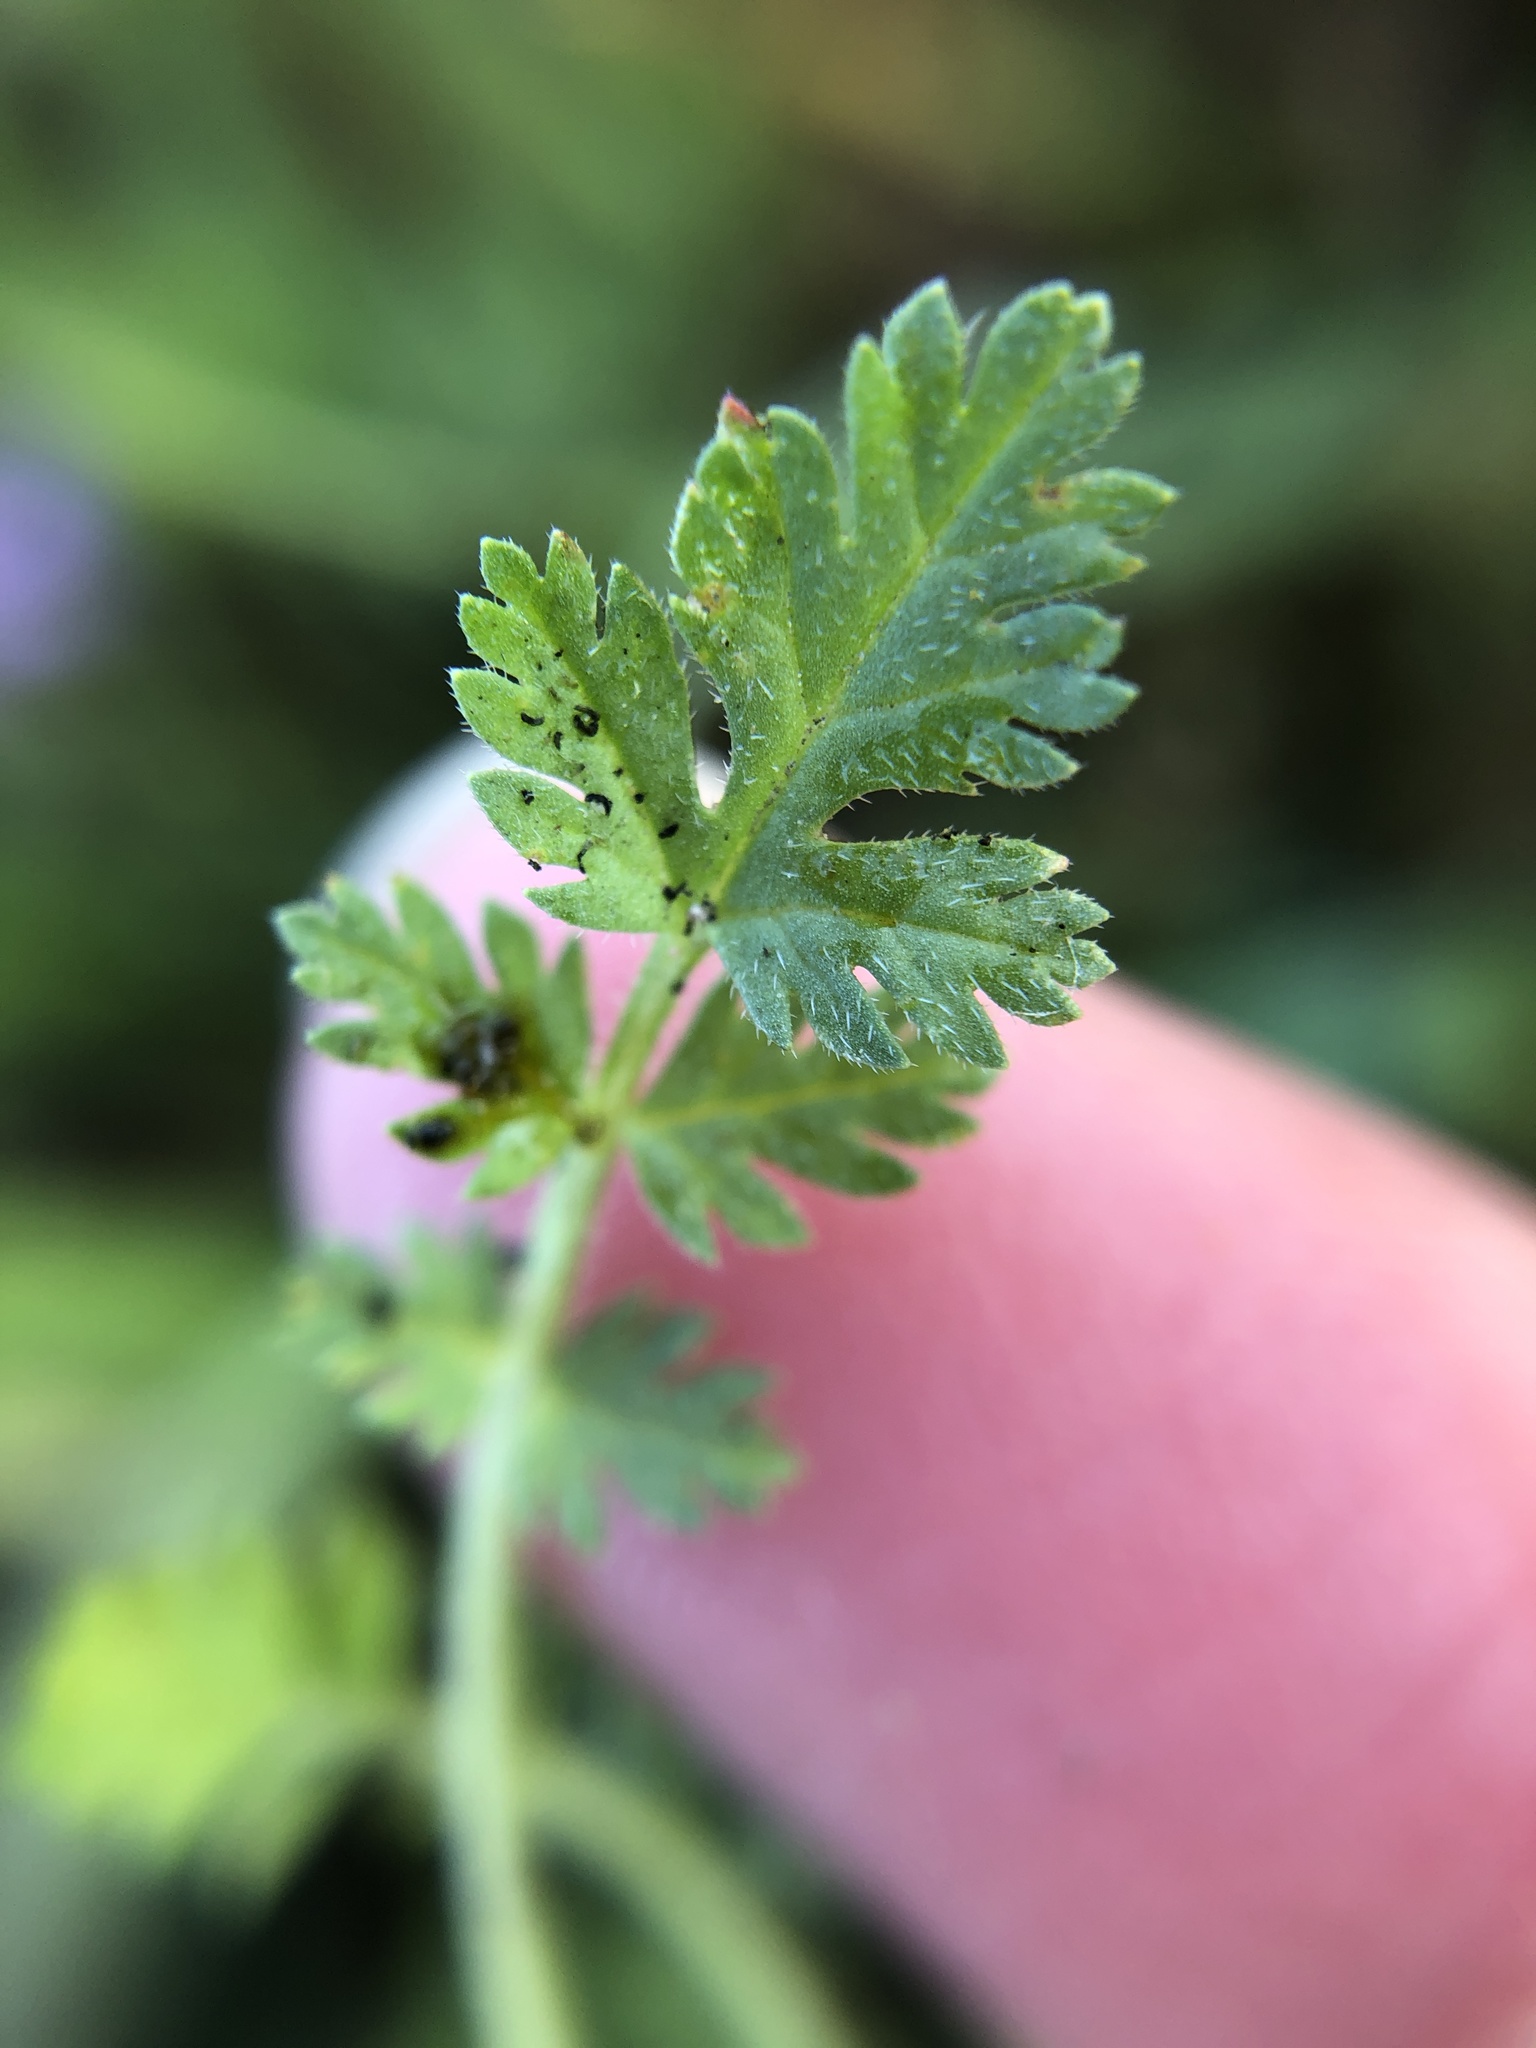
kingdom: Plantae
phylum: Tracheophyta
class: Magnoliopsida
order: Geraniales
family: Geraniaceae
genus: Erodium
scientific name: Erodium cicutarium
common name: Common stork's-bill
